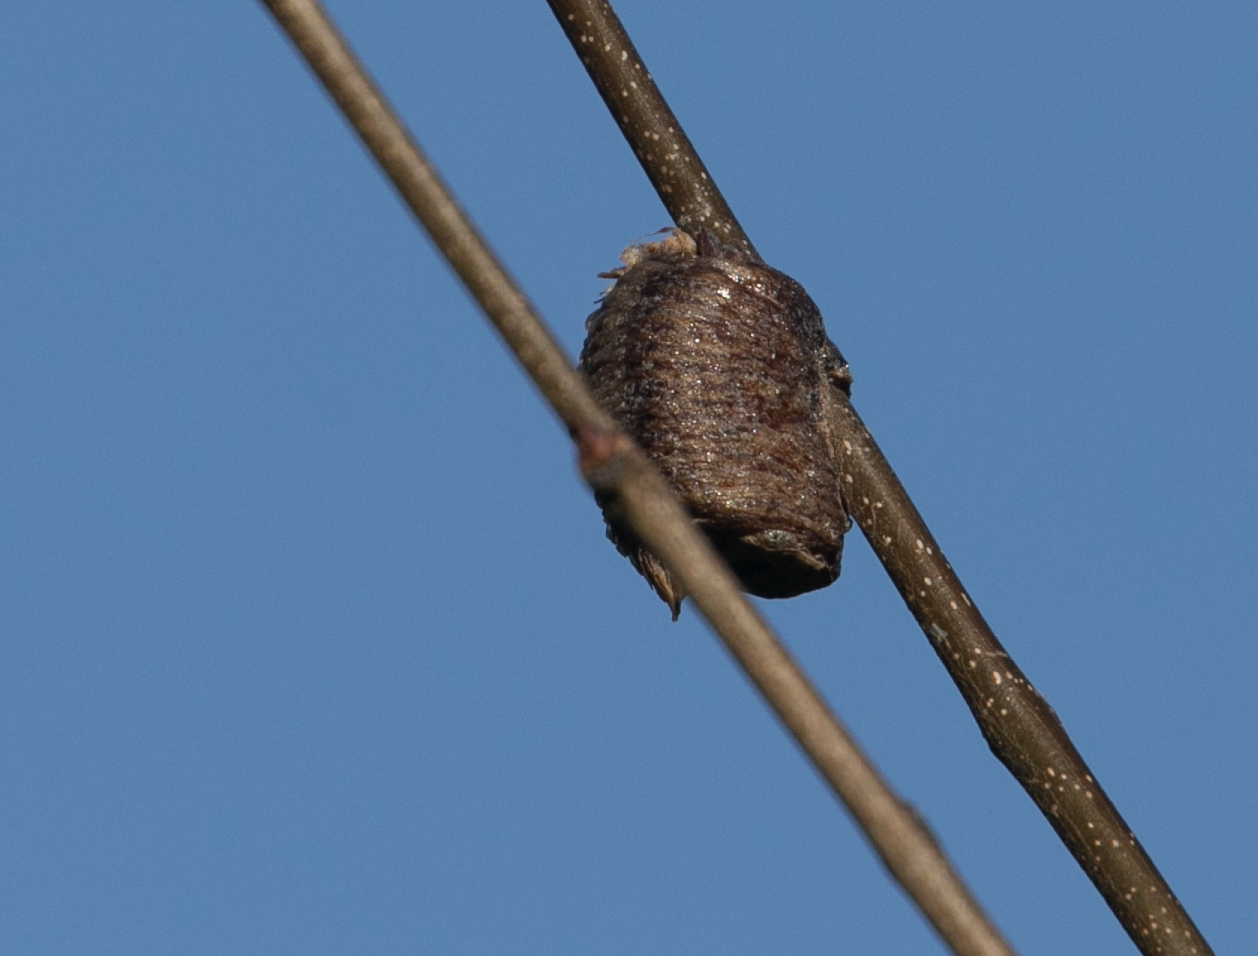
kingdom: Animalia
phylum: Arthropoda
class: Insecta
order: Mantodea
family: Mantidae
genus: Hierodula
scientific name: Hierodula transcaucasica
